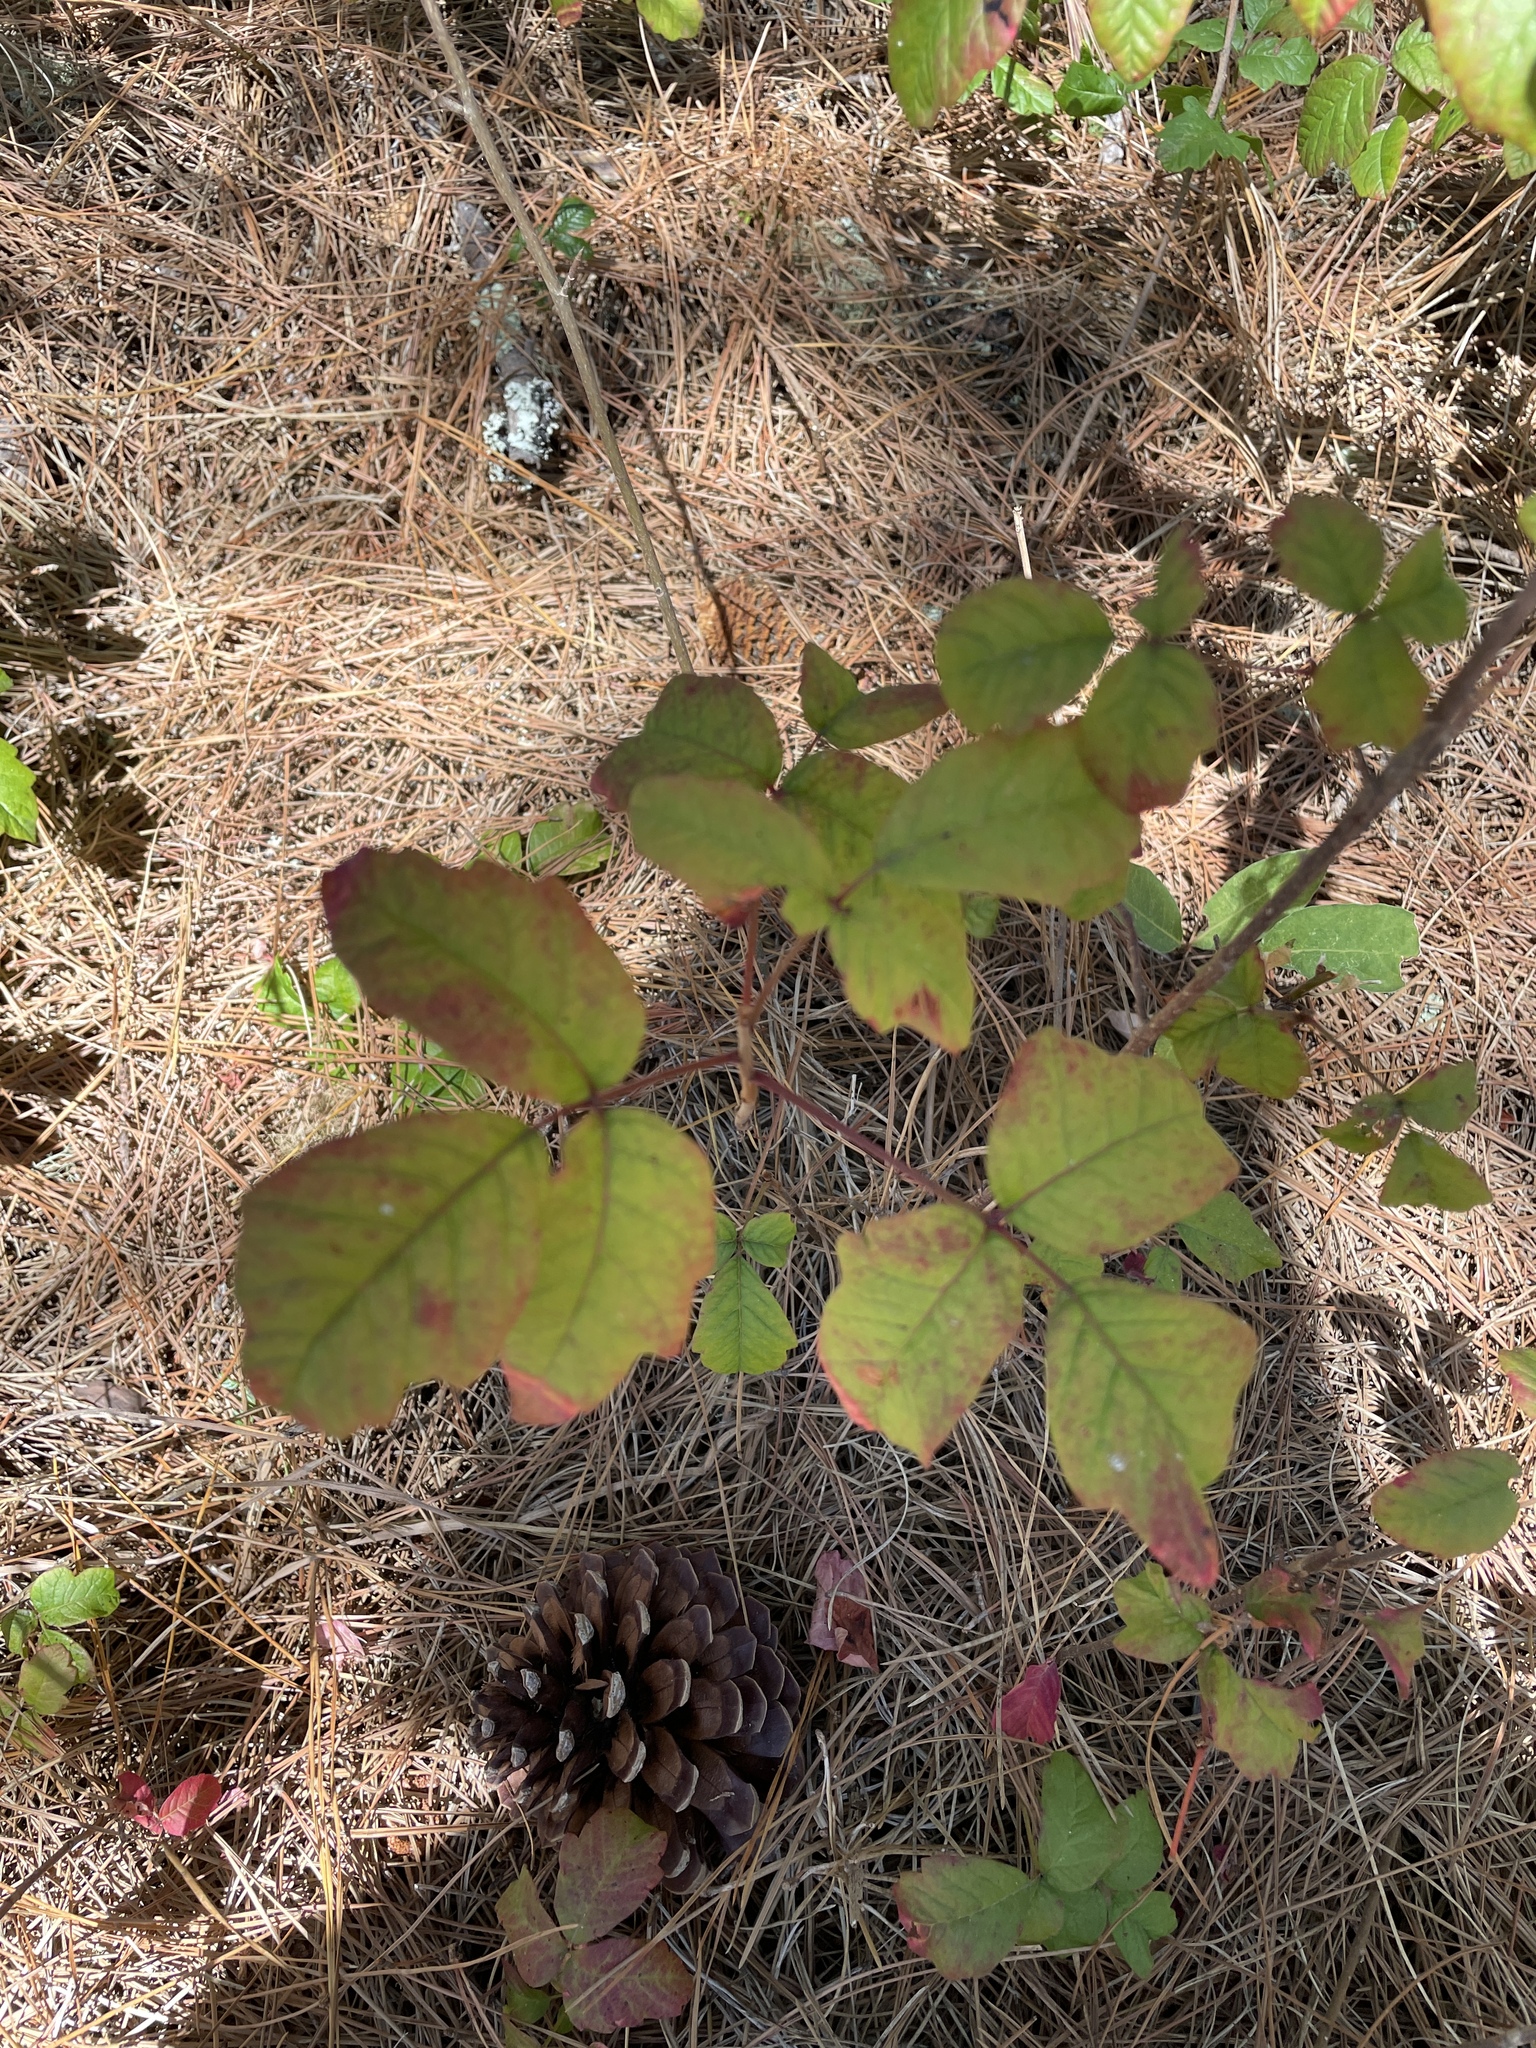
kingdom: Plantae
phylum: Tracheophyta
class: Magnoliopsida
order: Sapindales
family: Anacardiaceae
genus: Toxicodendron
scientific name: Toxicodendron diversilobum
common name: Pacific poison-oak
